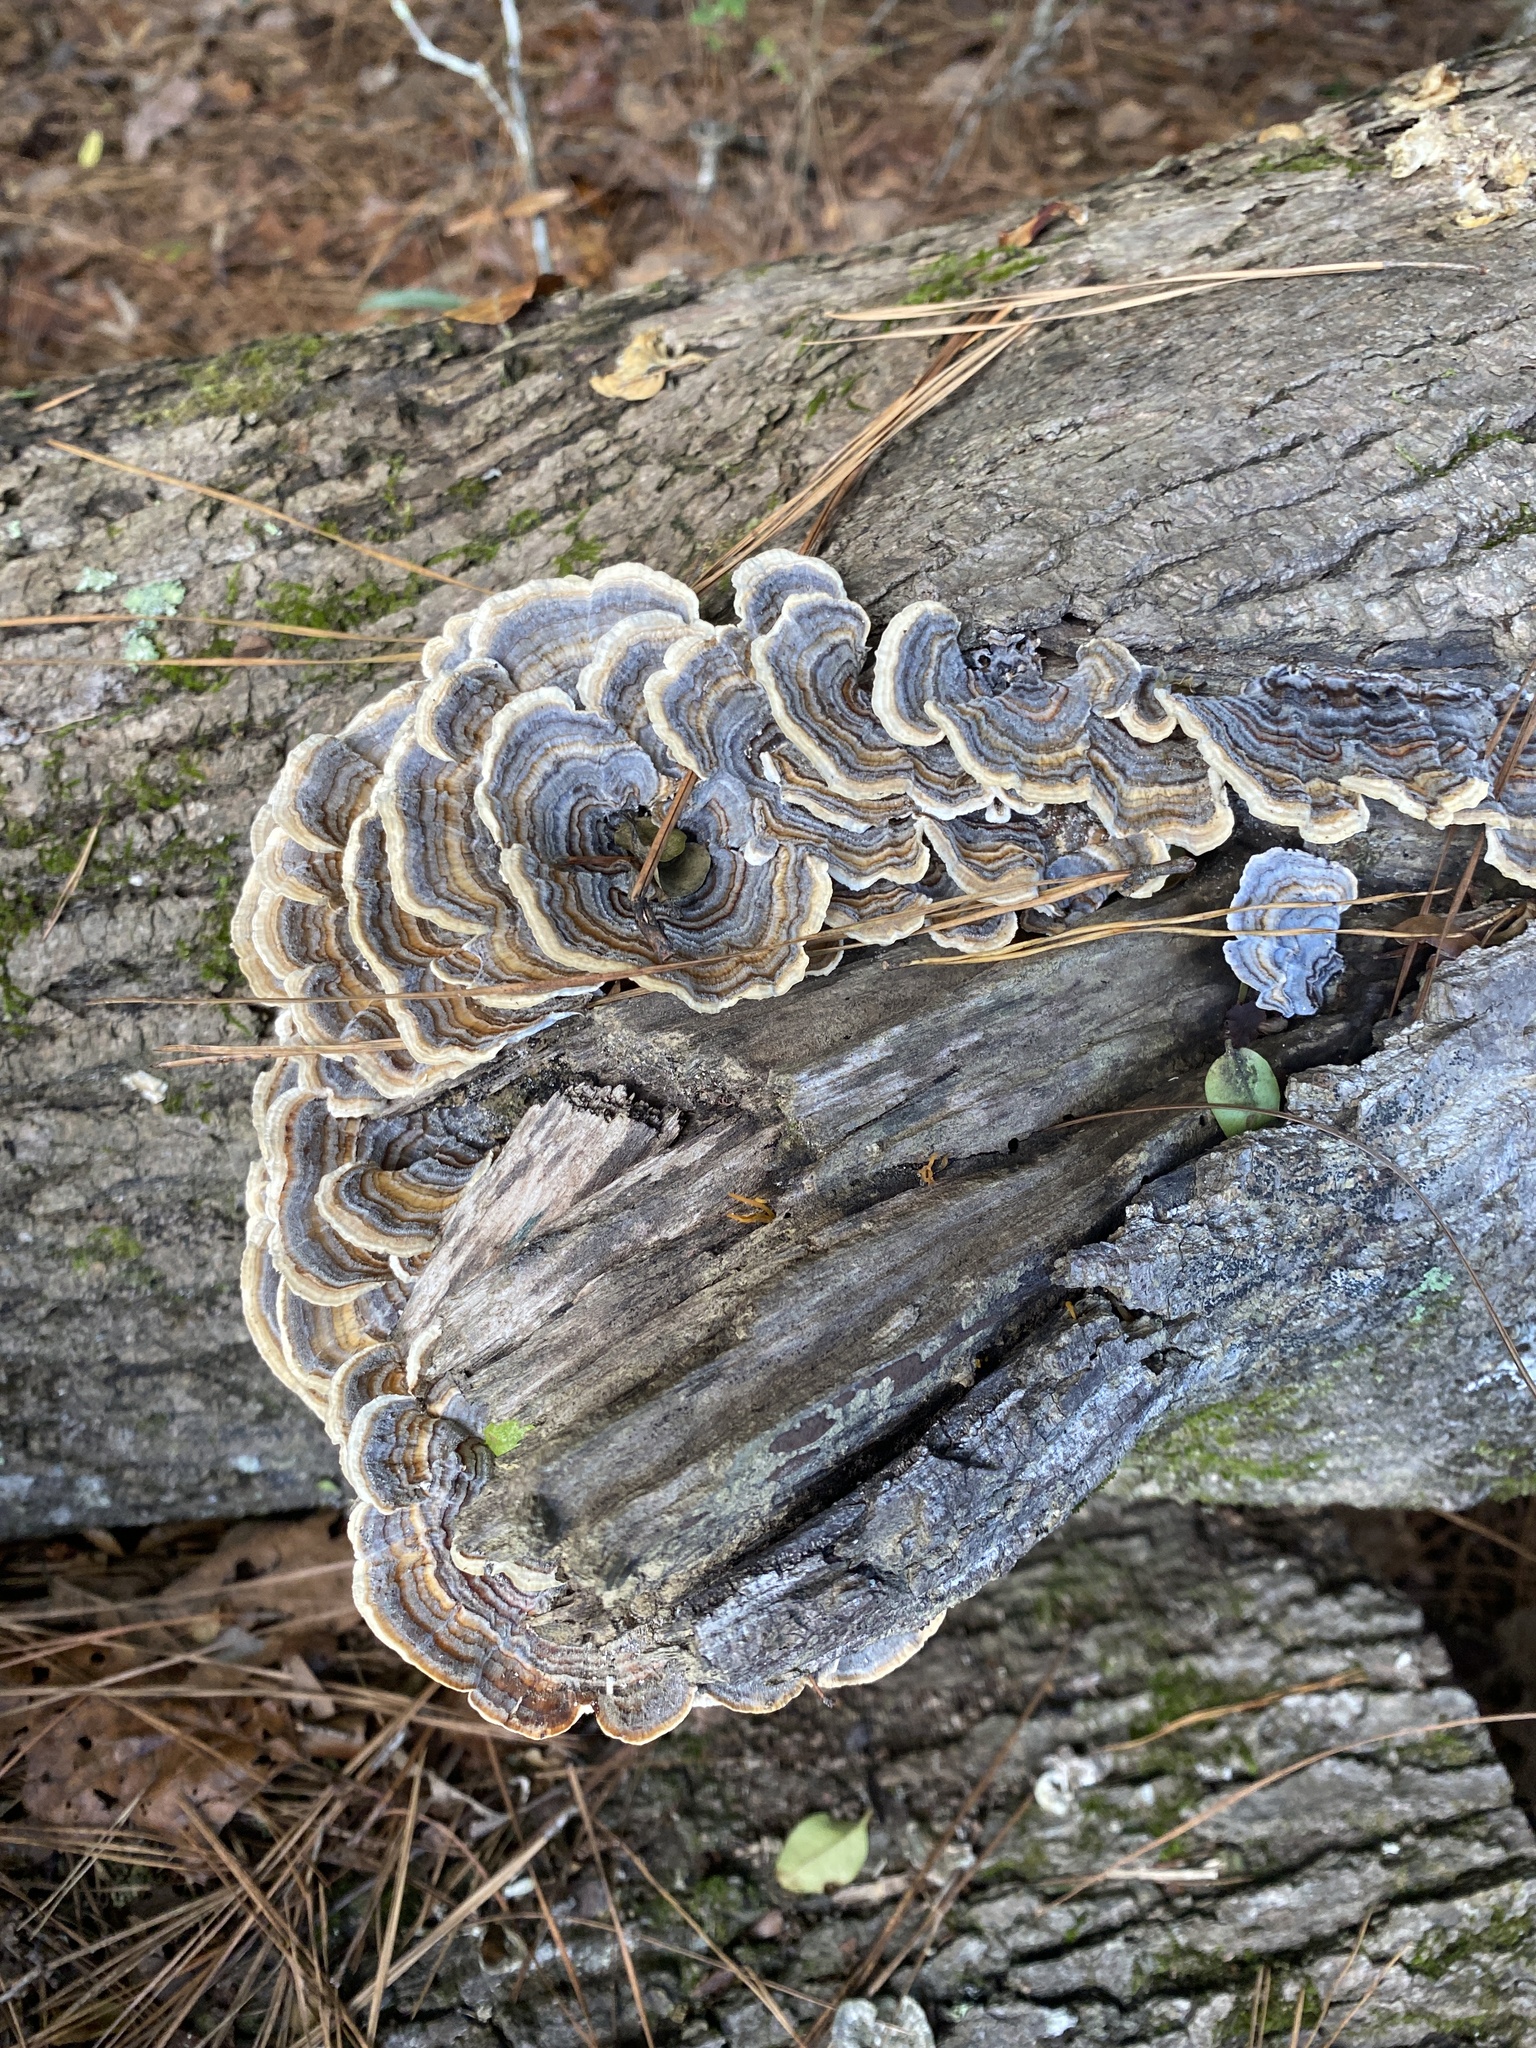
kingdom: Fungi
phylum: Basidiomycota
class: Agaricomycetes
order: Polyporales
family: Polyporaceae
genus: Trametes
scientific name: Trametes versicolor
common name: Turkeytail
